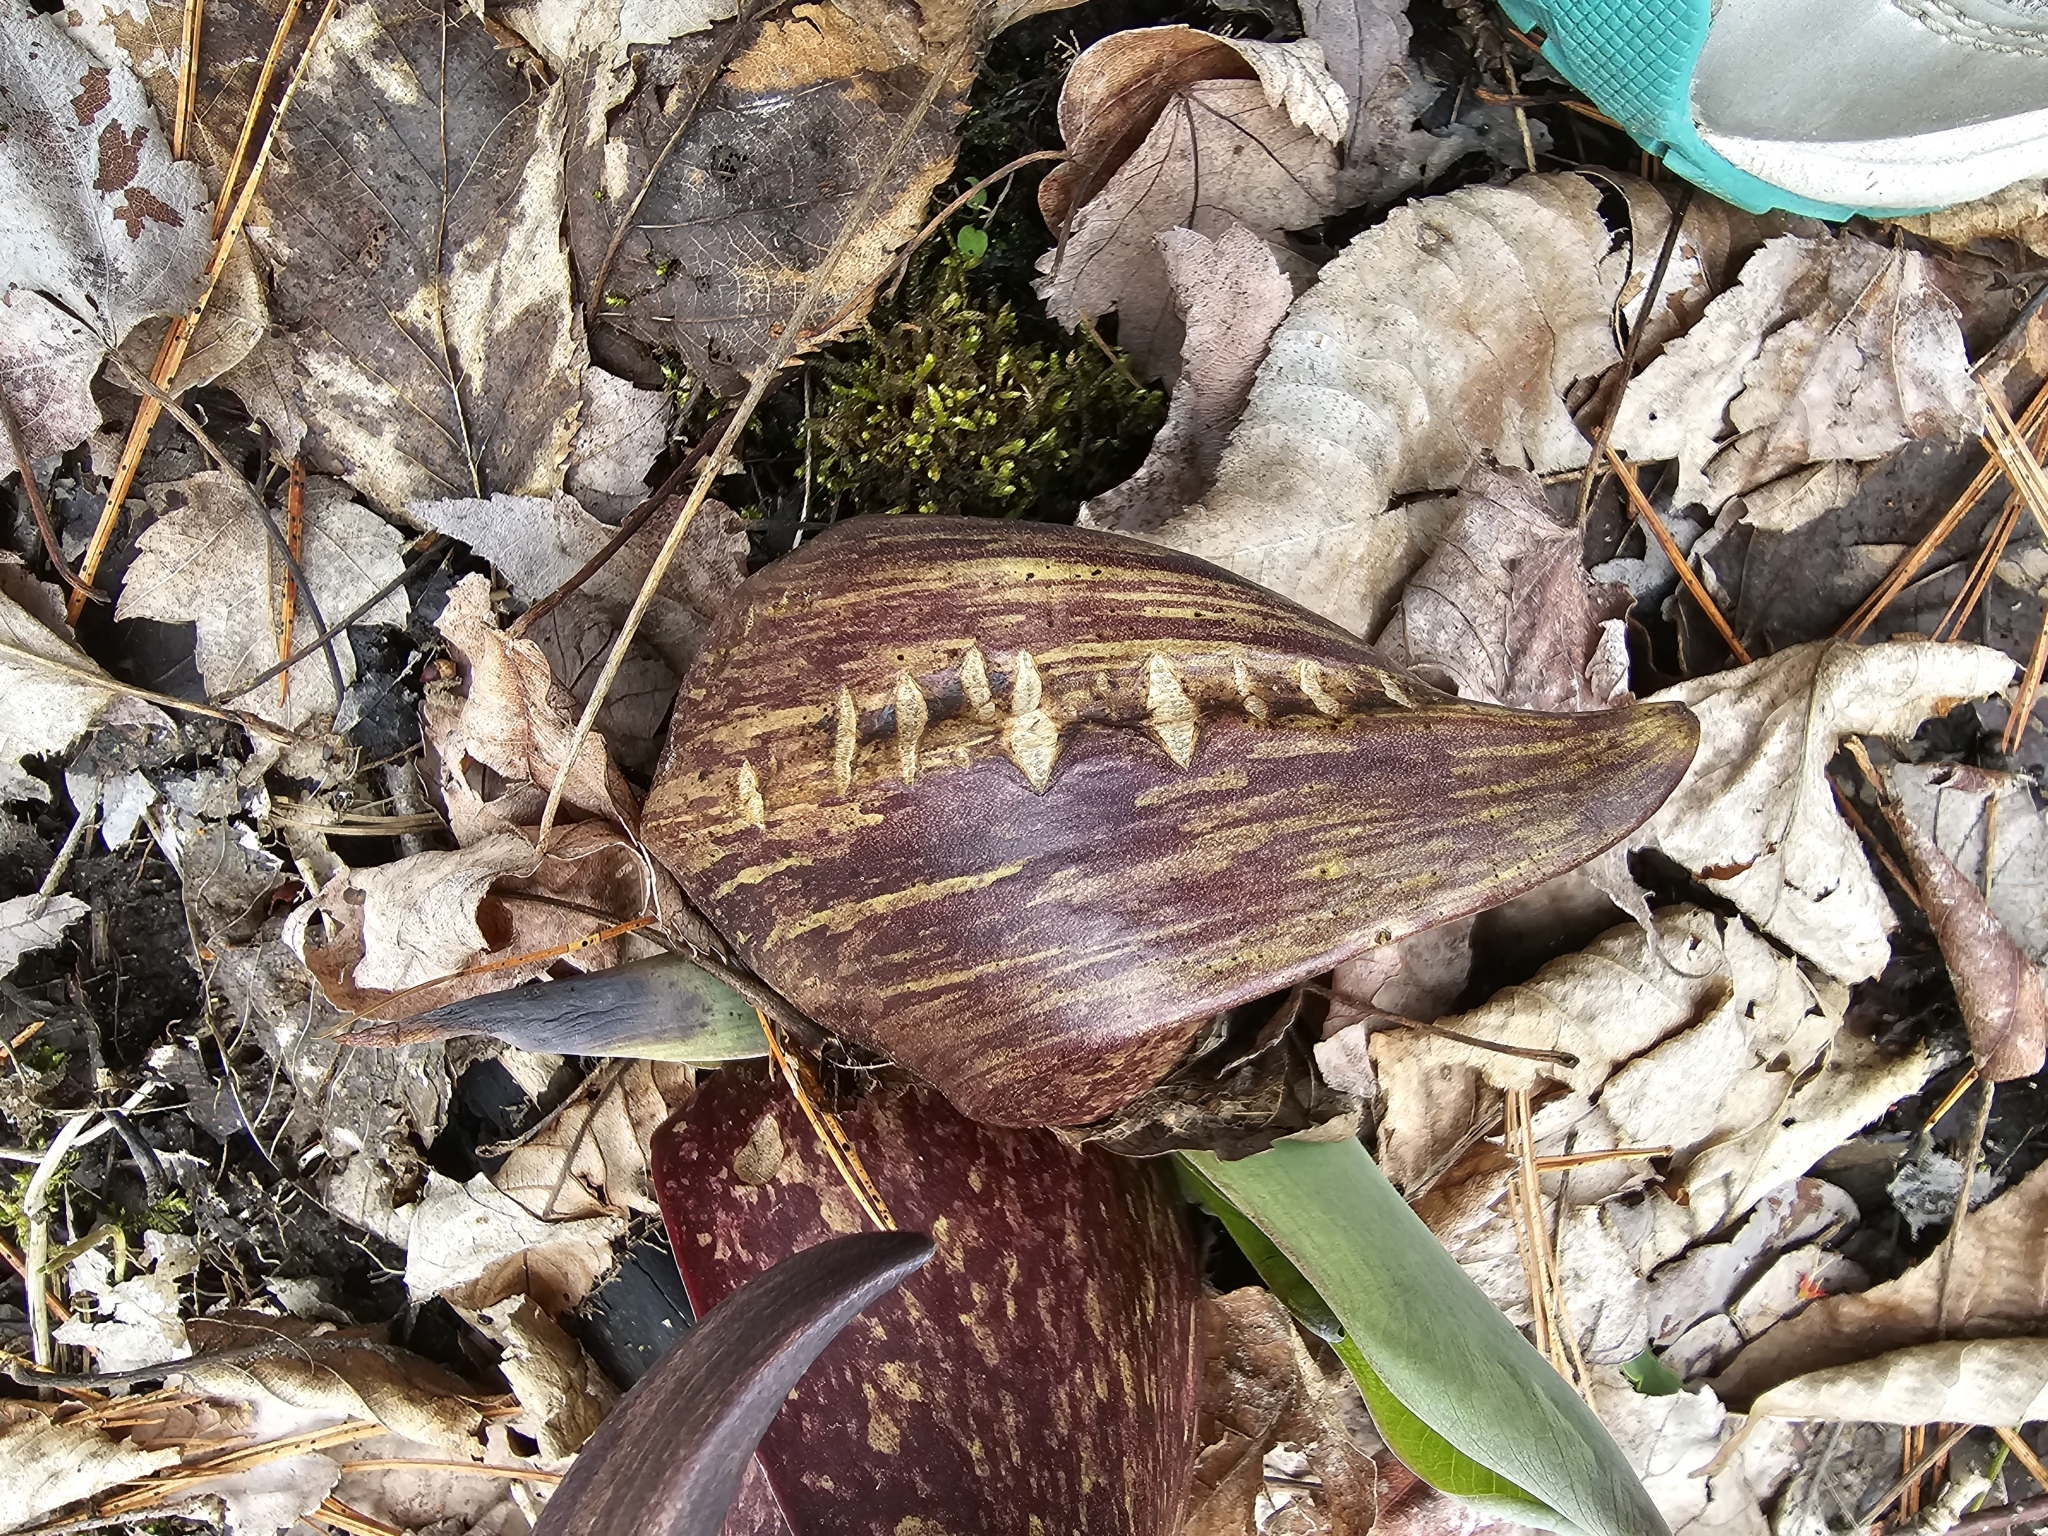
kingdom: Plantae
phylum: Tracheophyta
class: Liliopsida
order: Alismatales
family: Araceae
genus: Symplocarpus
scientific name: Symplocarpus foetidus
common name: Eastern skunk cabbage
